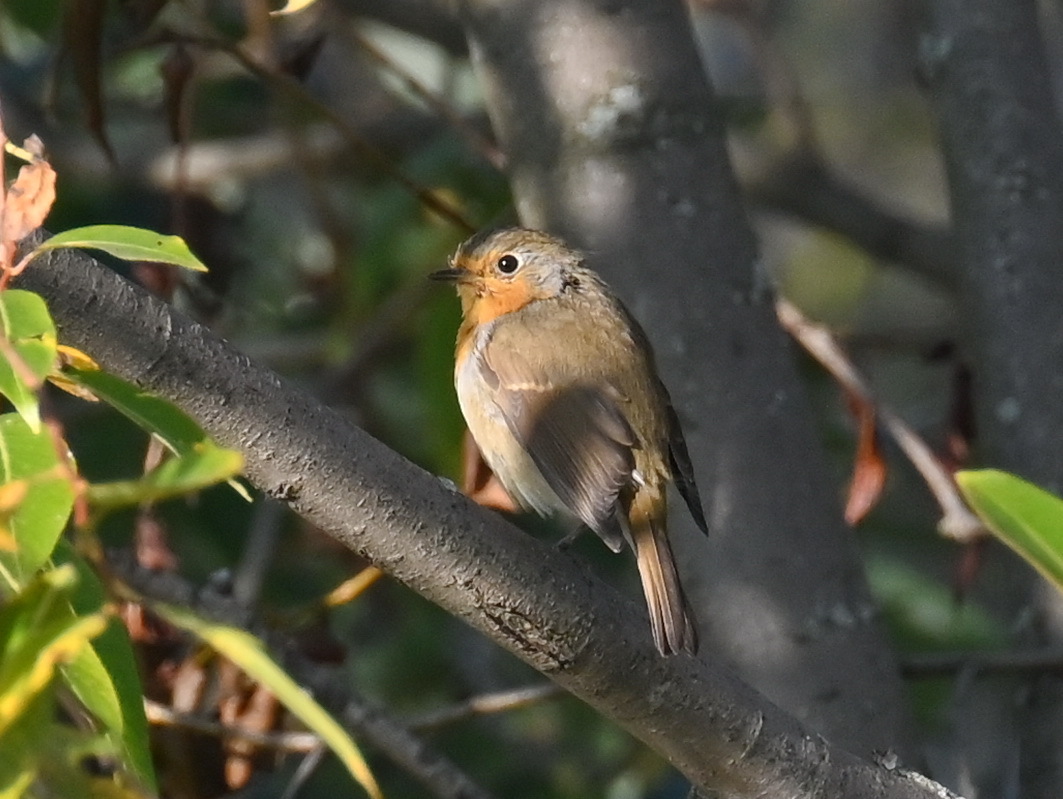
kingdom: Animalia
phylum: Chordata
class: Aves
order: Passeriformes
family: Muscicapidae
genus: Erithacus
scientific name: Erithacus rubecula
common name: European robin
